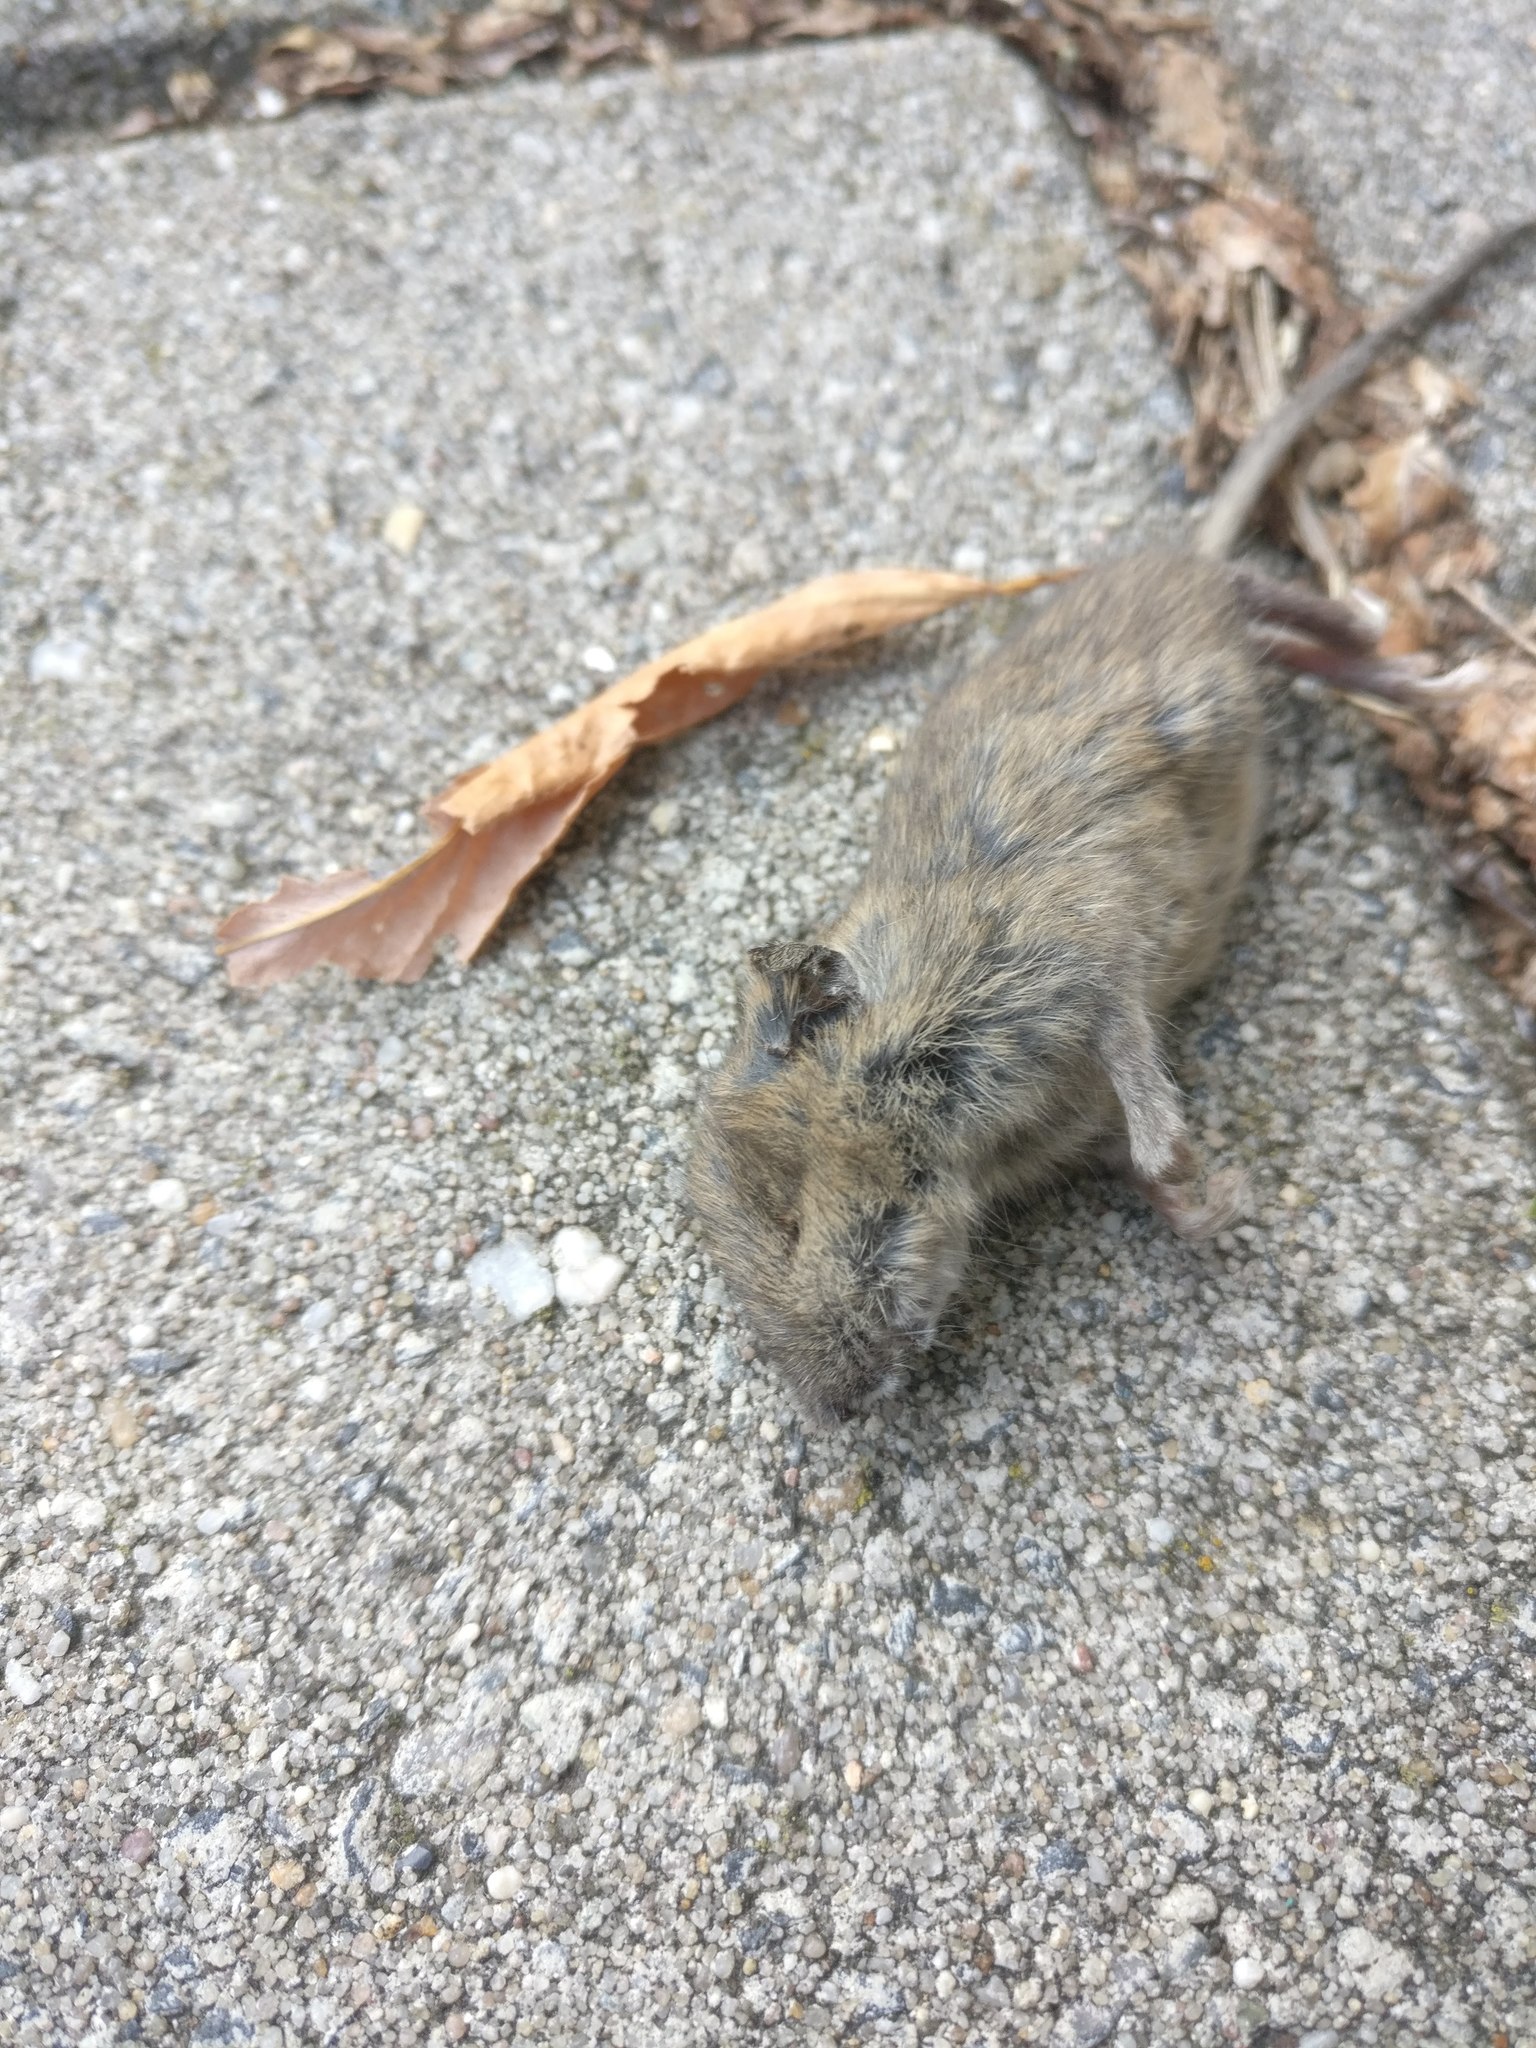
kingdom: Animalia
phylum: Chordata
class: Mammalia
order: Rodentia
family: Muridae
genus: Mus
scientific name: Mus musculus
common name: House mouse
